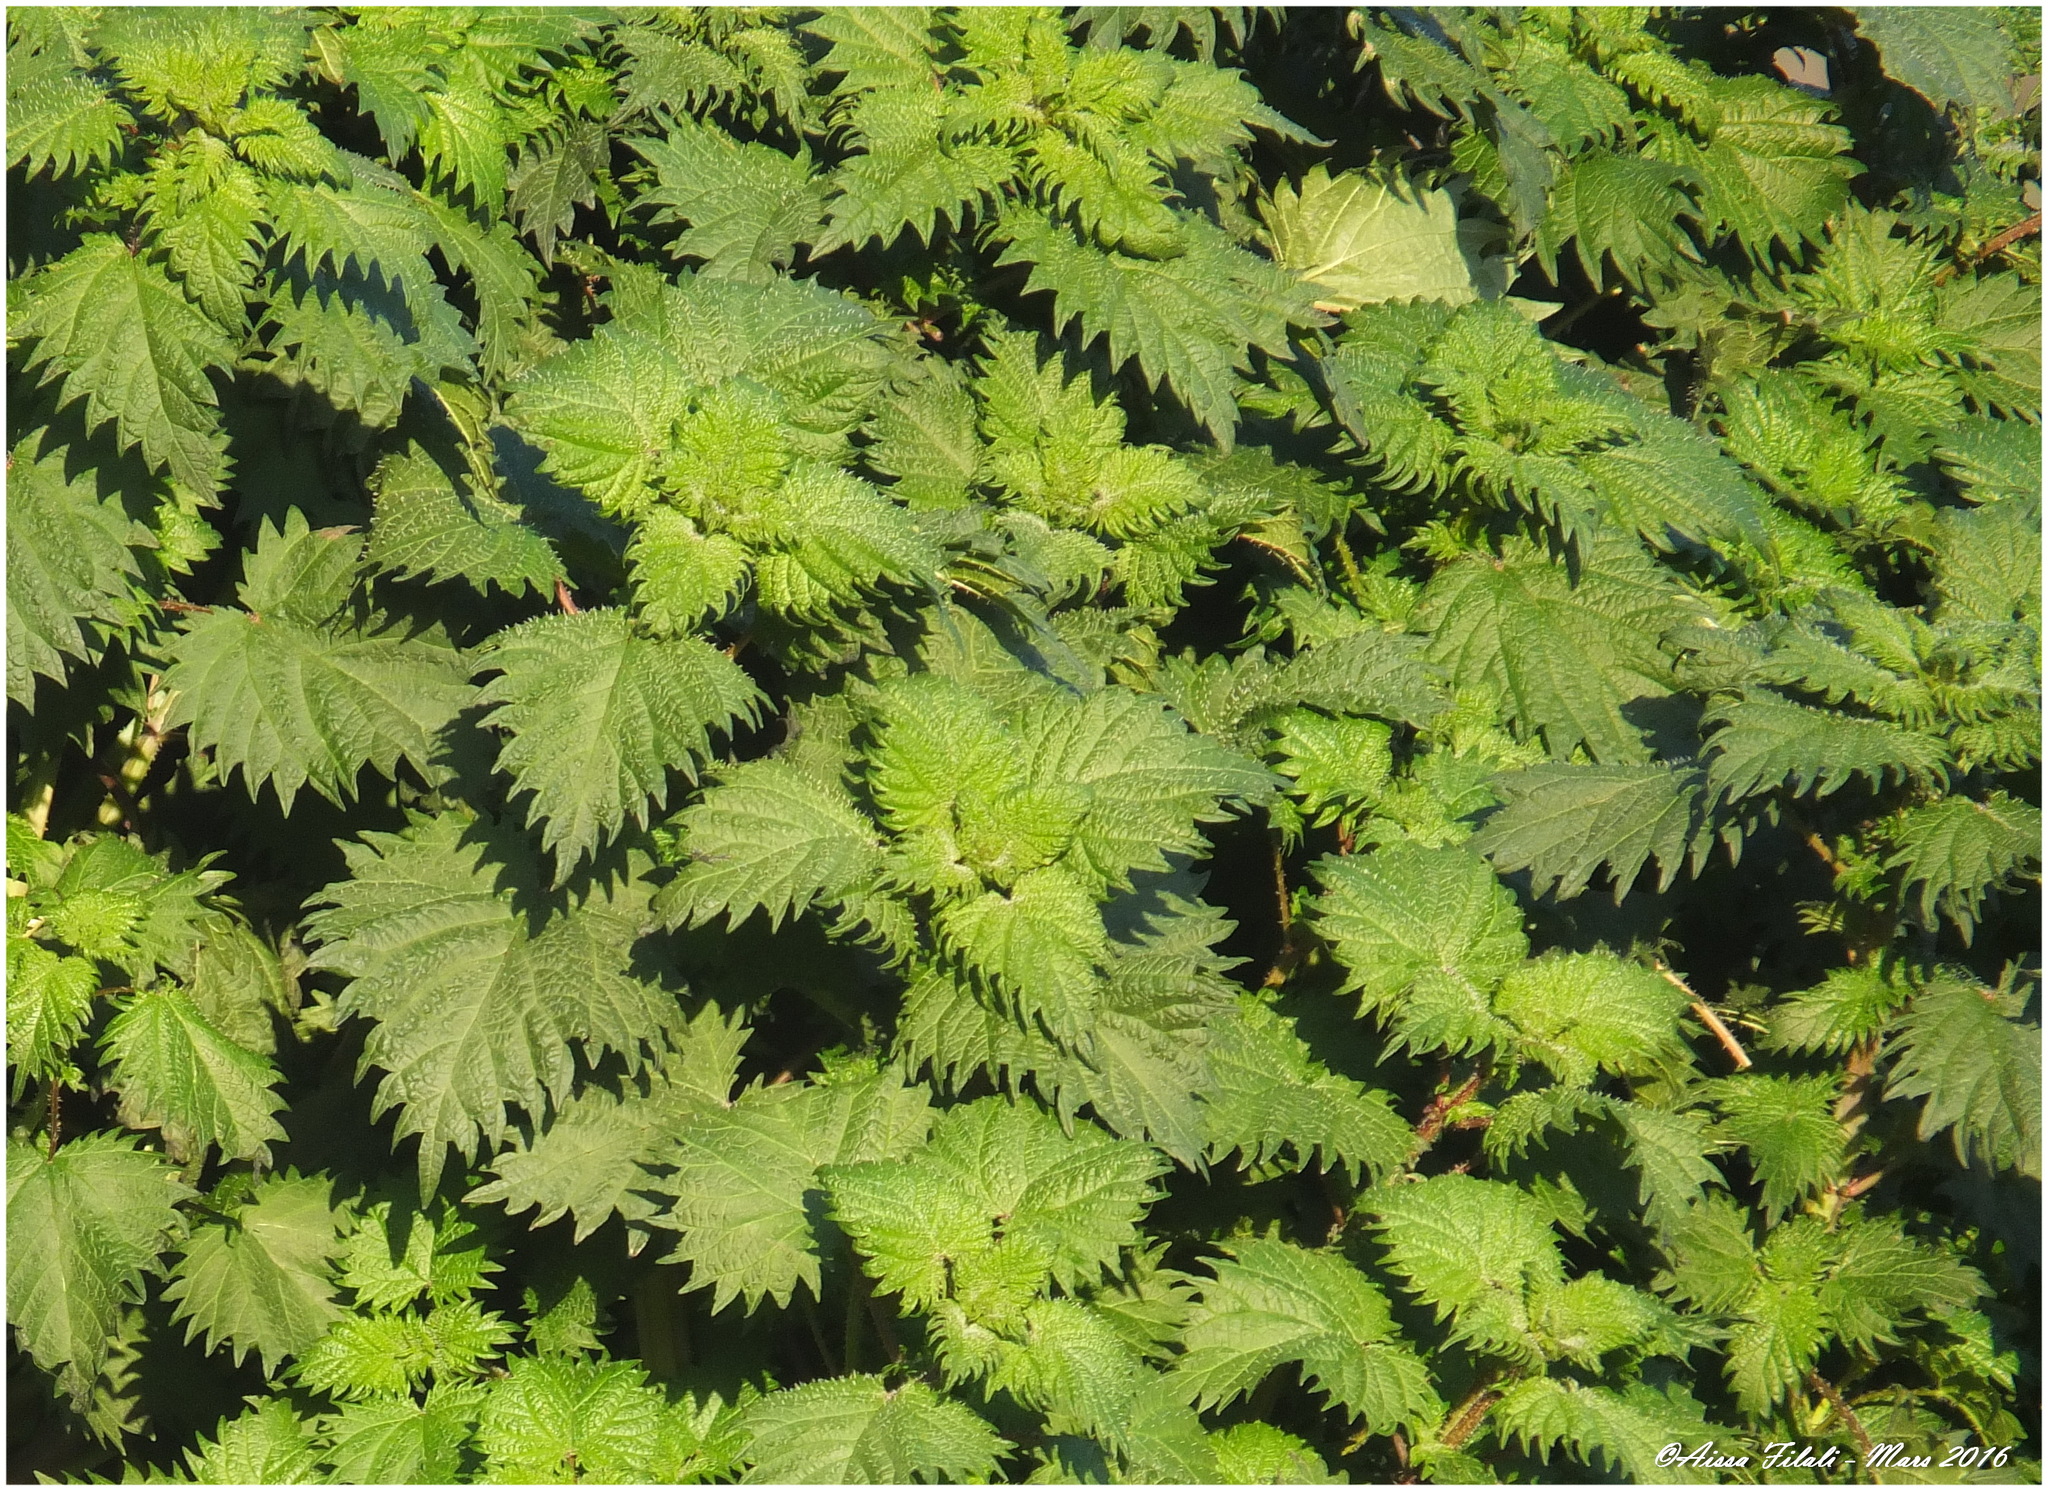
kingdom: Plantae
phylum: Tracheophyta
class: Magnoliopsida
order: Rosales
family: Urticaceae
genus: Urtica
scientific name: Urtica urens
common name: Dwarf nettle
